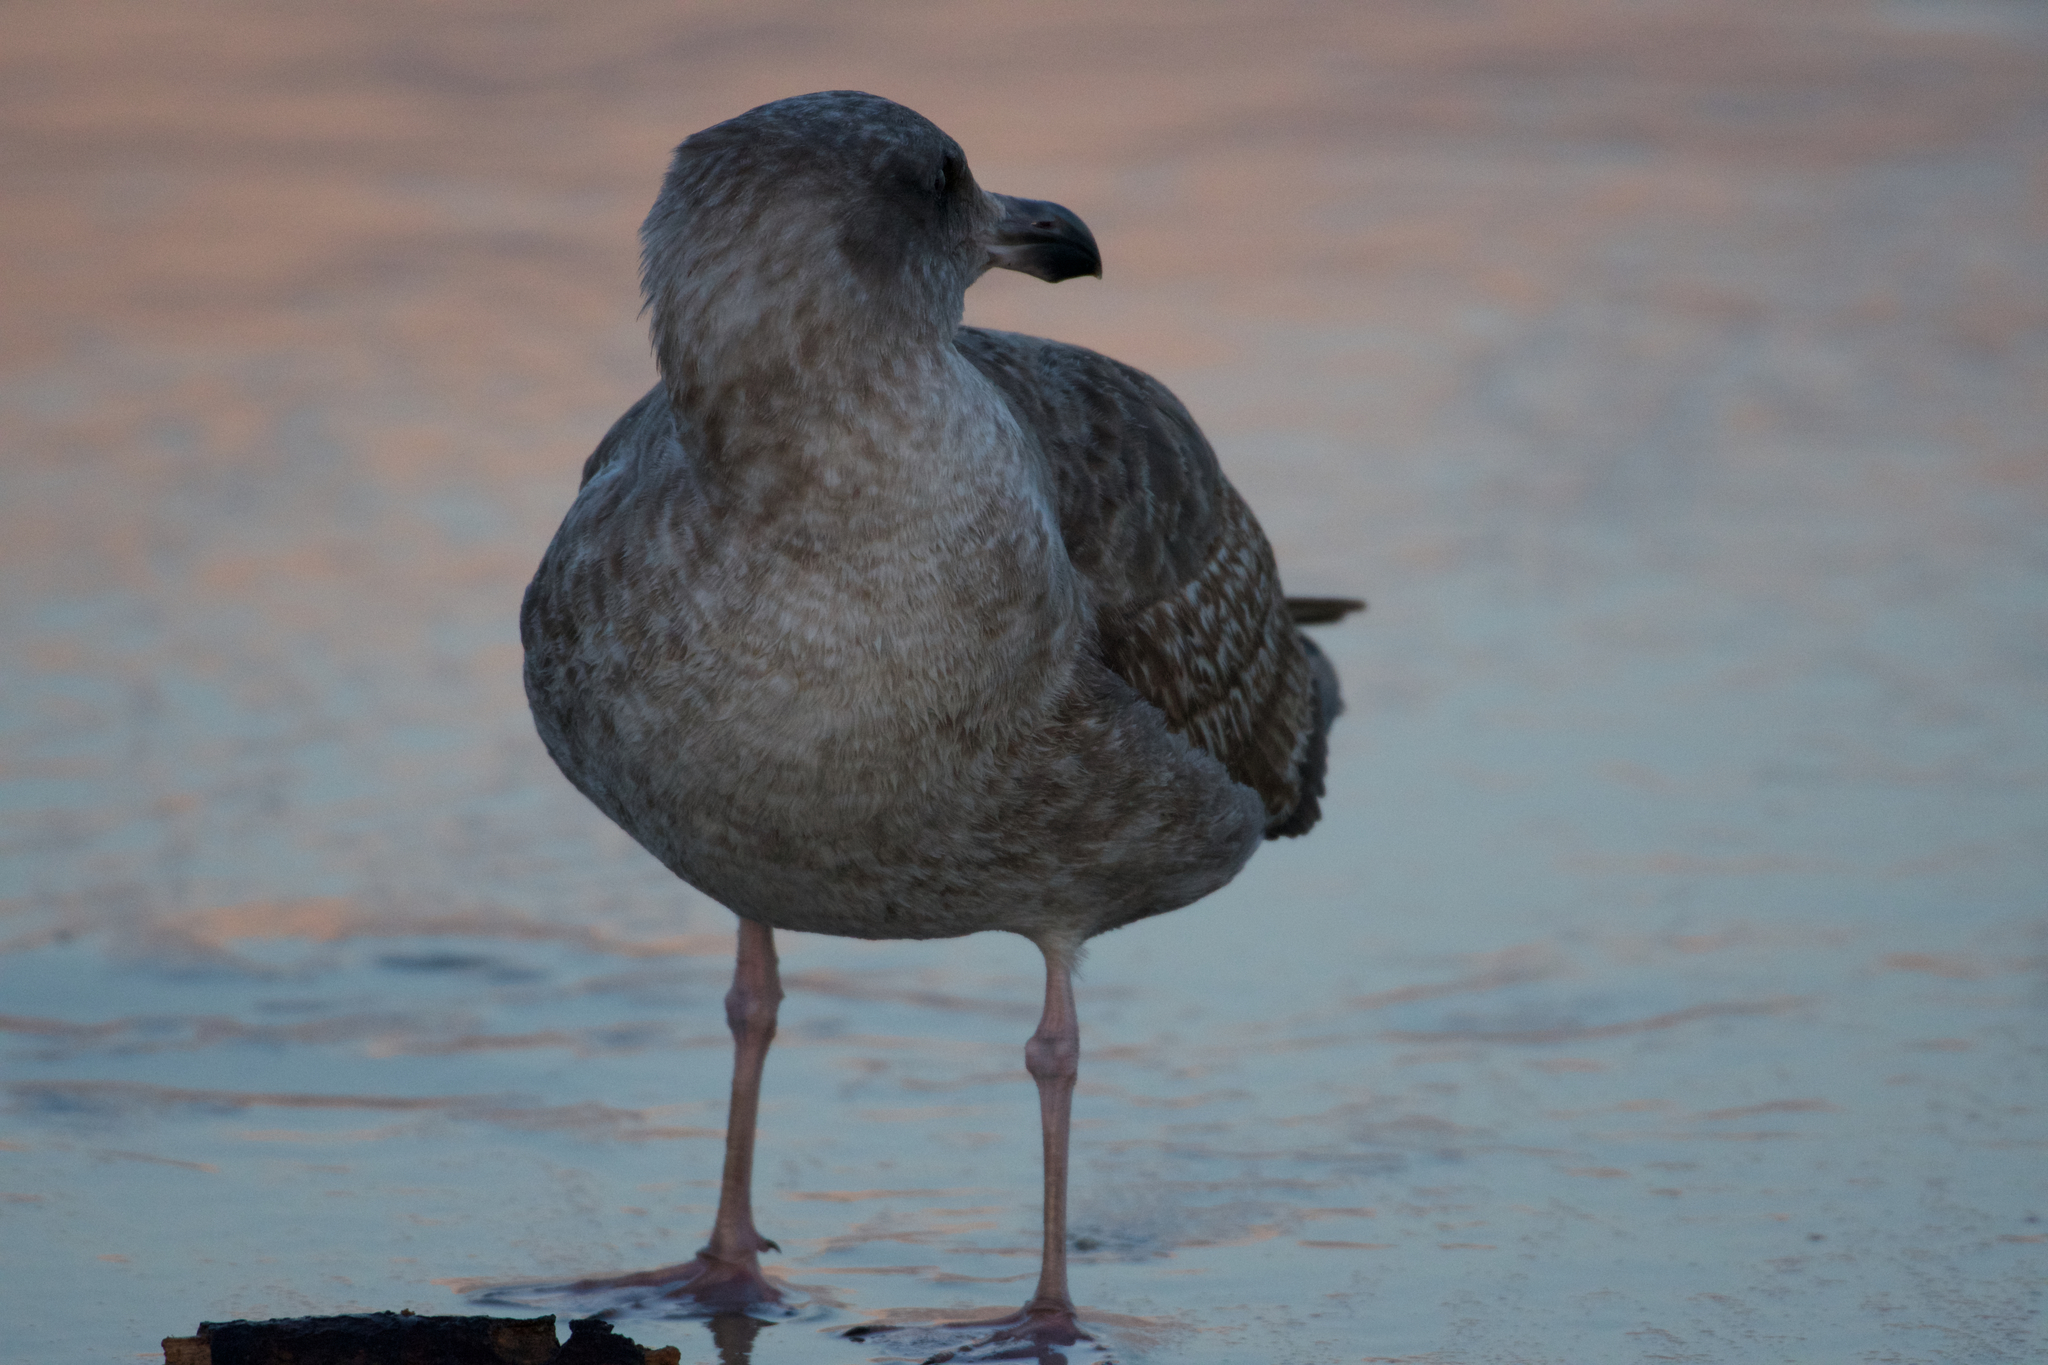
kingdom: Animalia
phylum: Chordata
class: Aves
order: Charadriiformes
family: Laridae
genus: Larus
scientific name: Larus occidentalis
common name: Western gull
